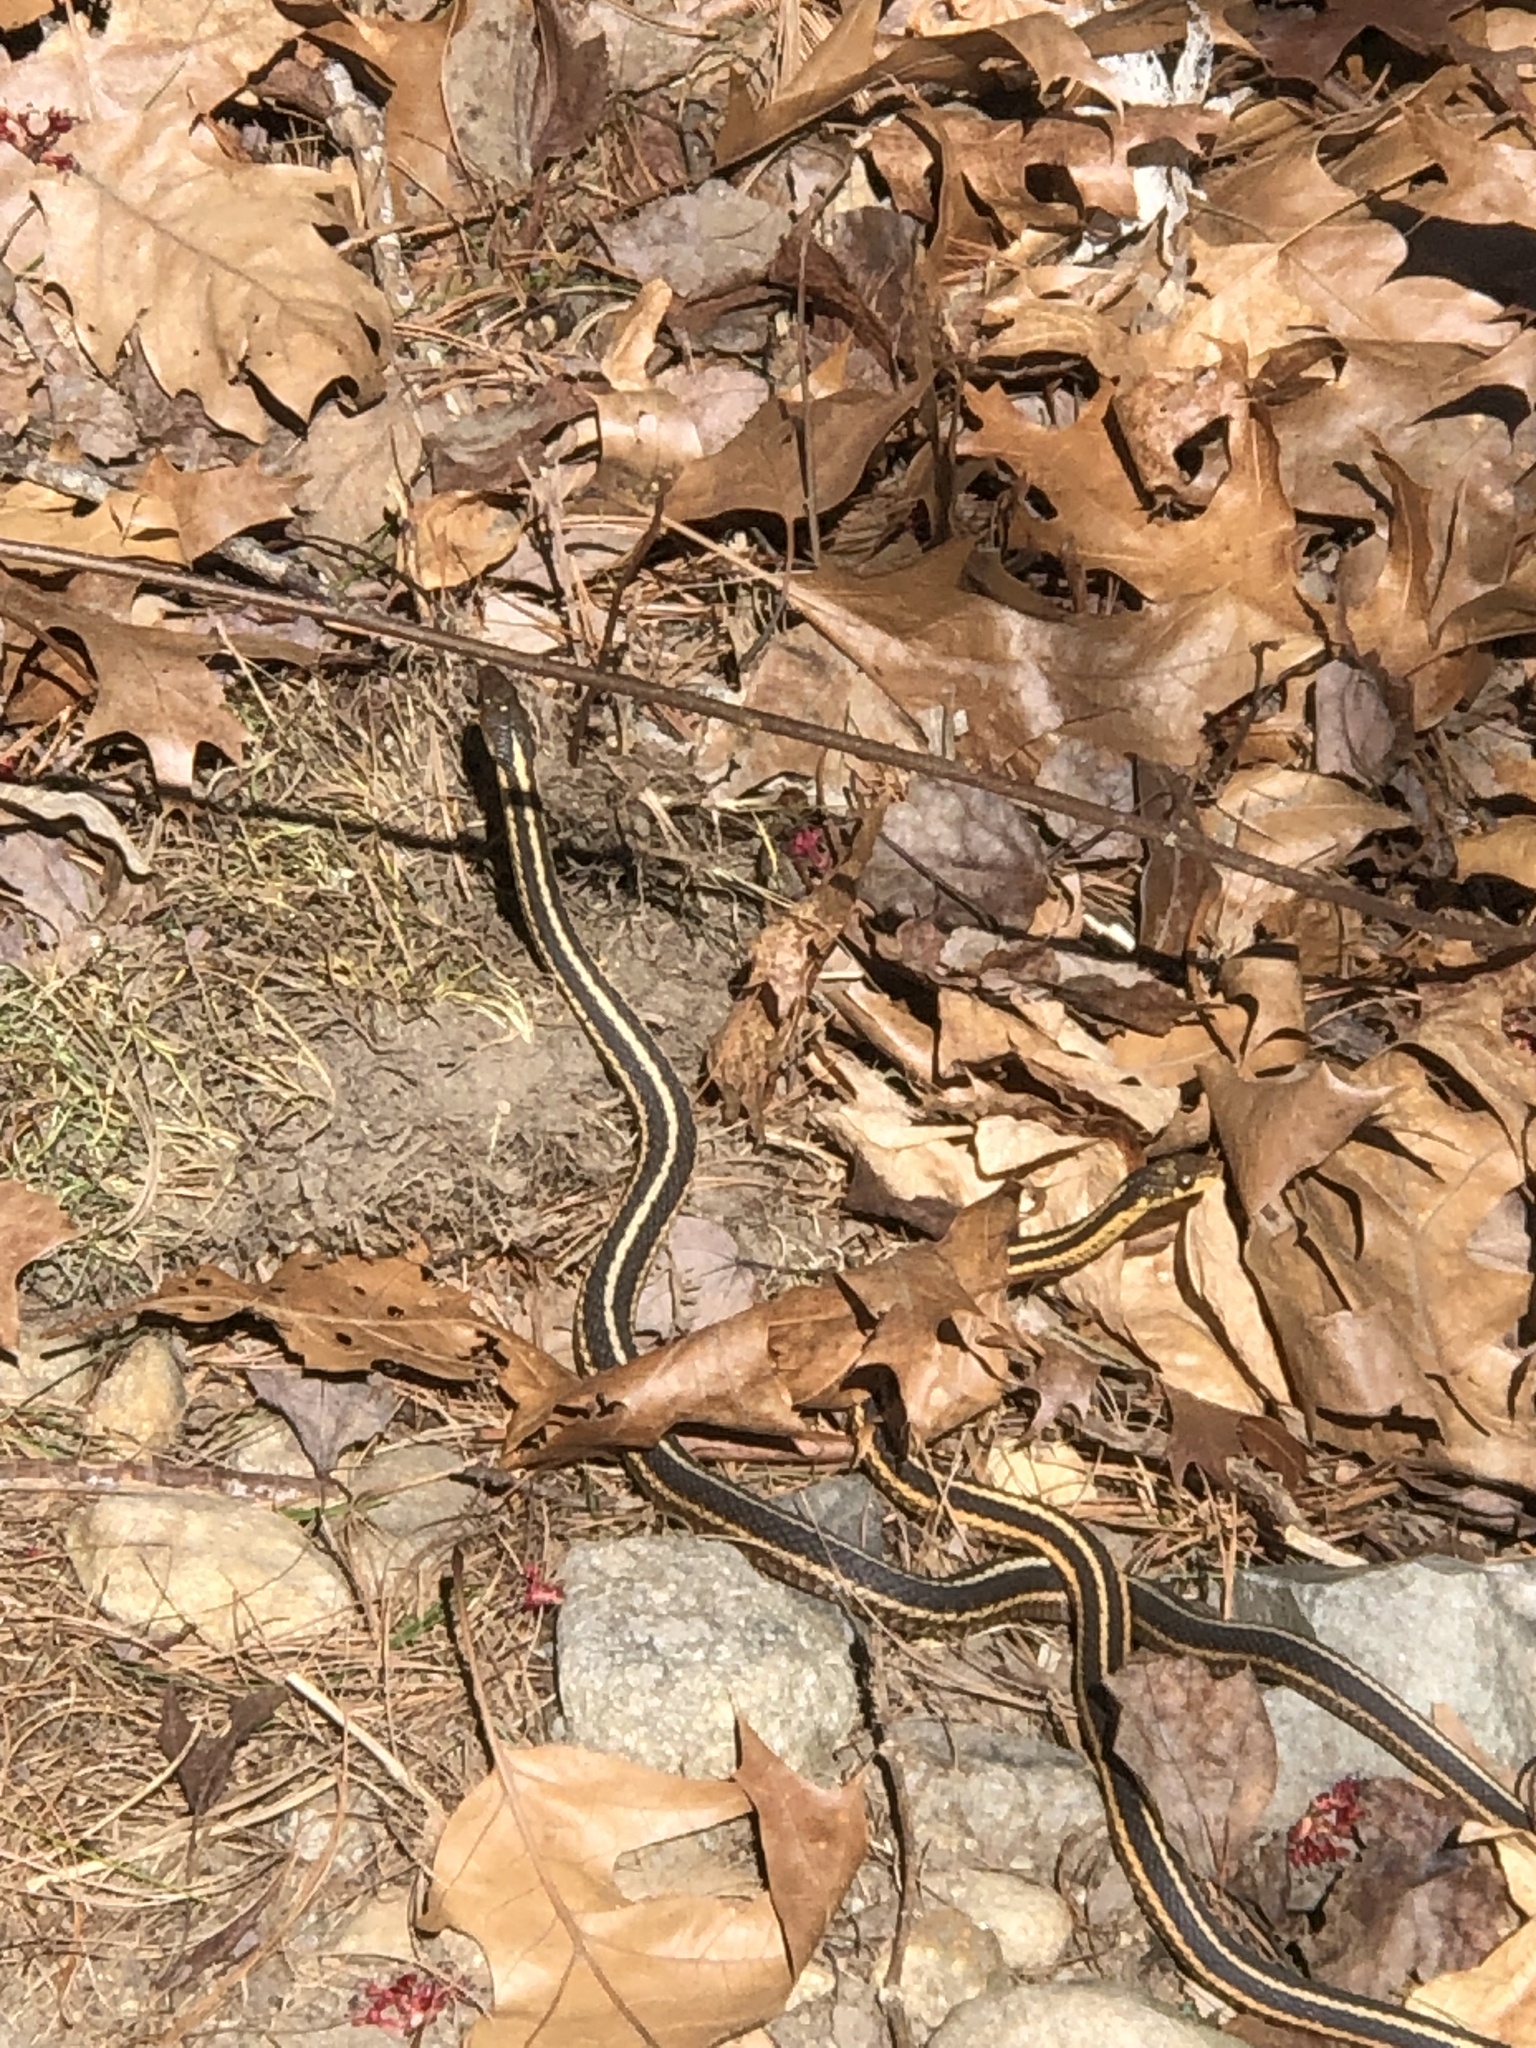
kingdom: Animalia
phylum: Chordata
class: Squamata
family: Colubridae
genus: Thamnophis
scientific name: Thamnophis sirtalis
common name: Common garter snake
